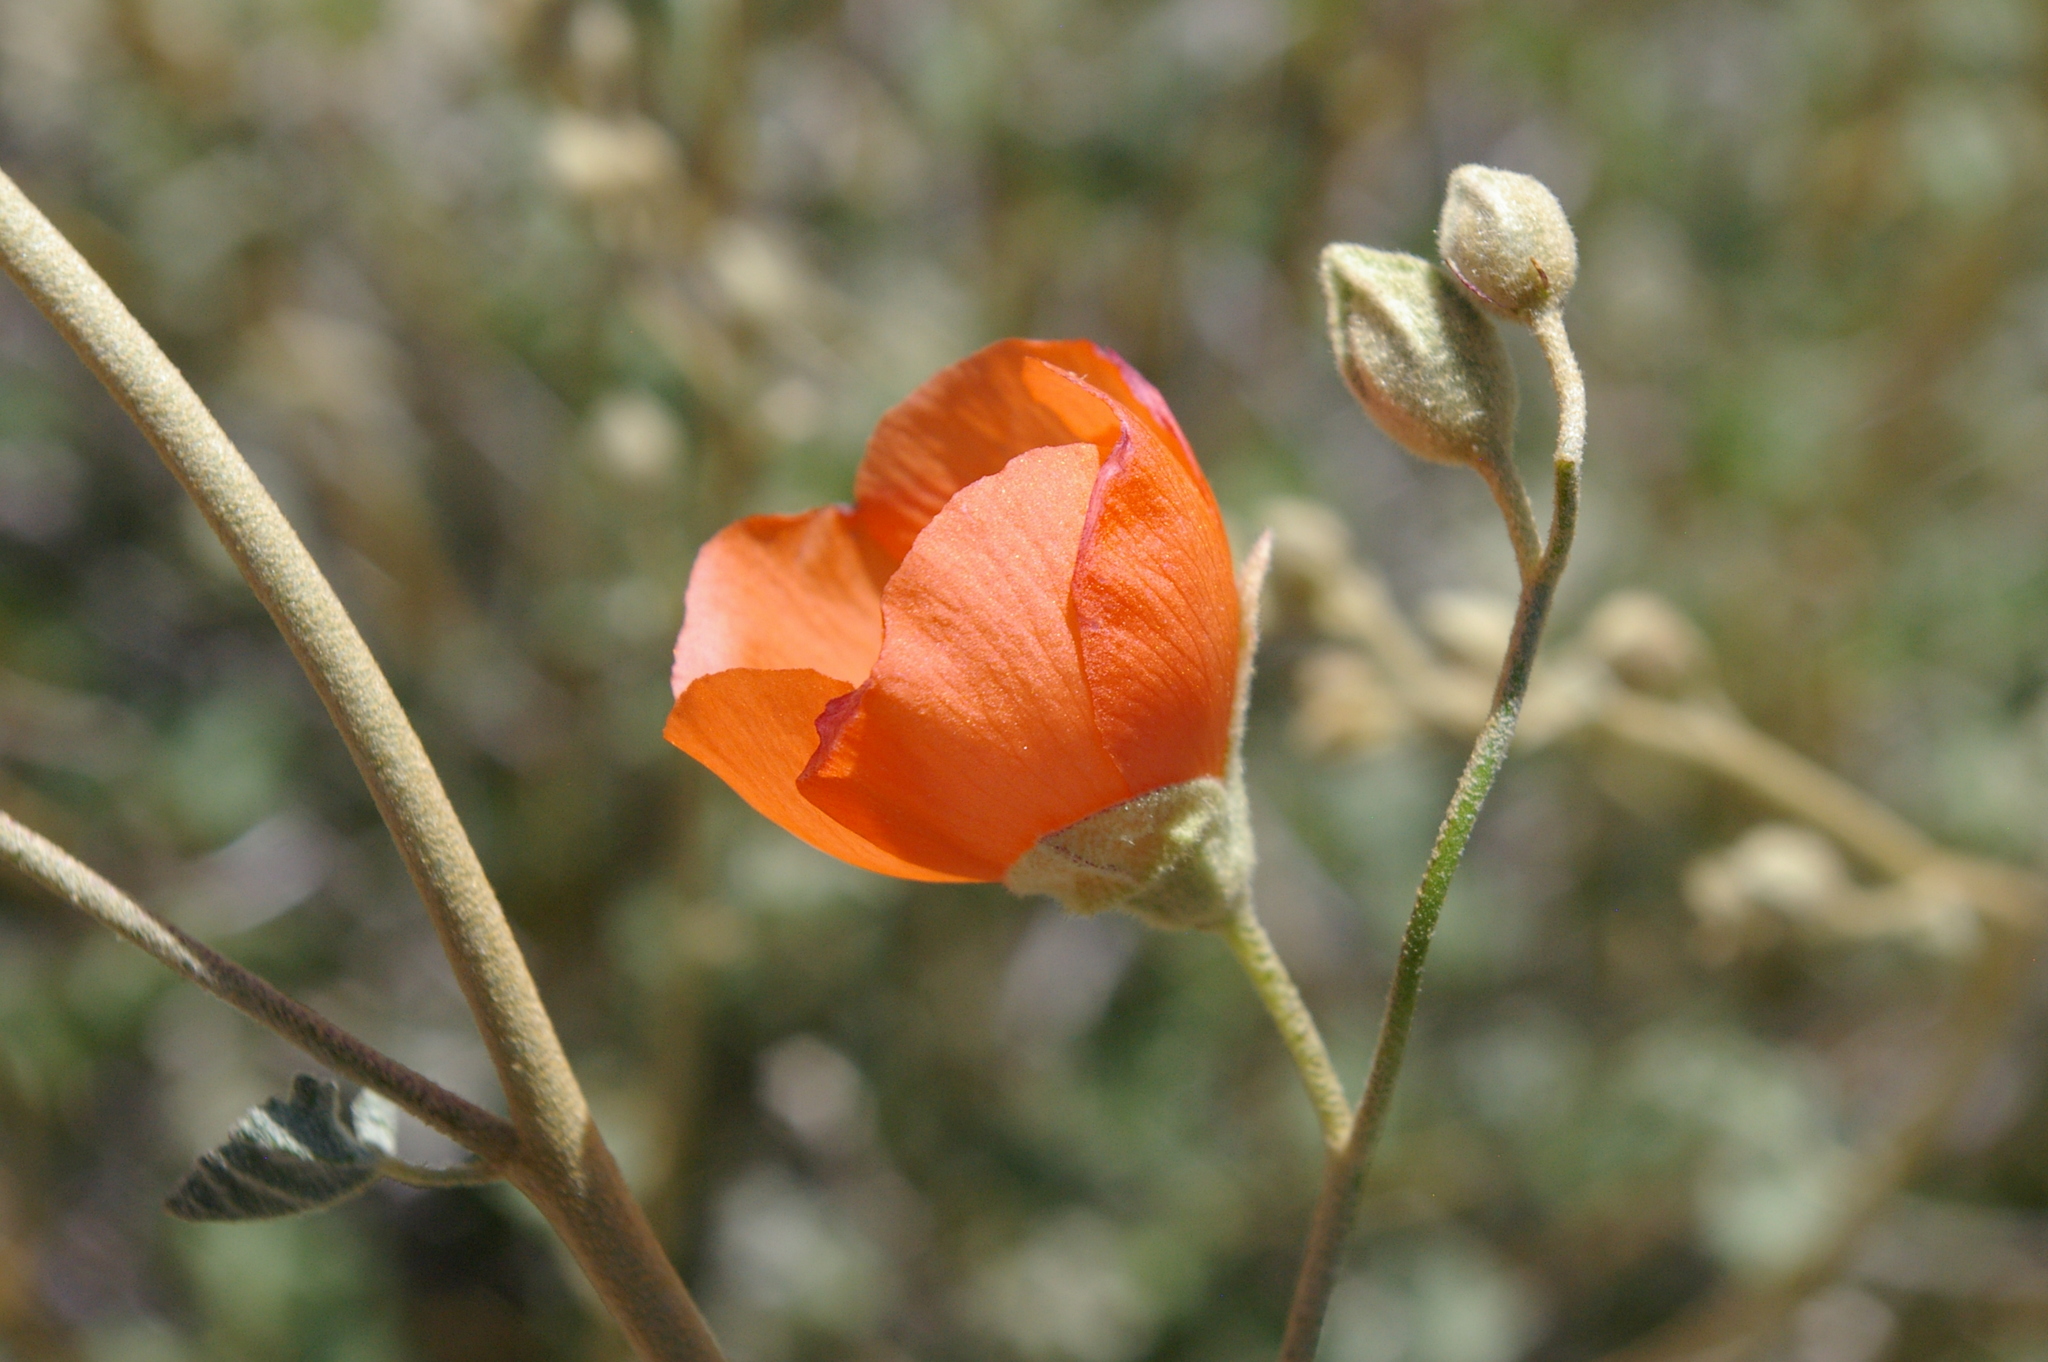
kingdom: Plantae
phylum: Tracheophyta
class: Magnoliopsida
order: Malvales
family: Malvaceae
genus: Sphaeralcea
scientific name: Sphaeralcea ambigua
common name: Apricot globe-mallow
